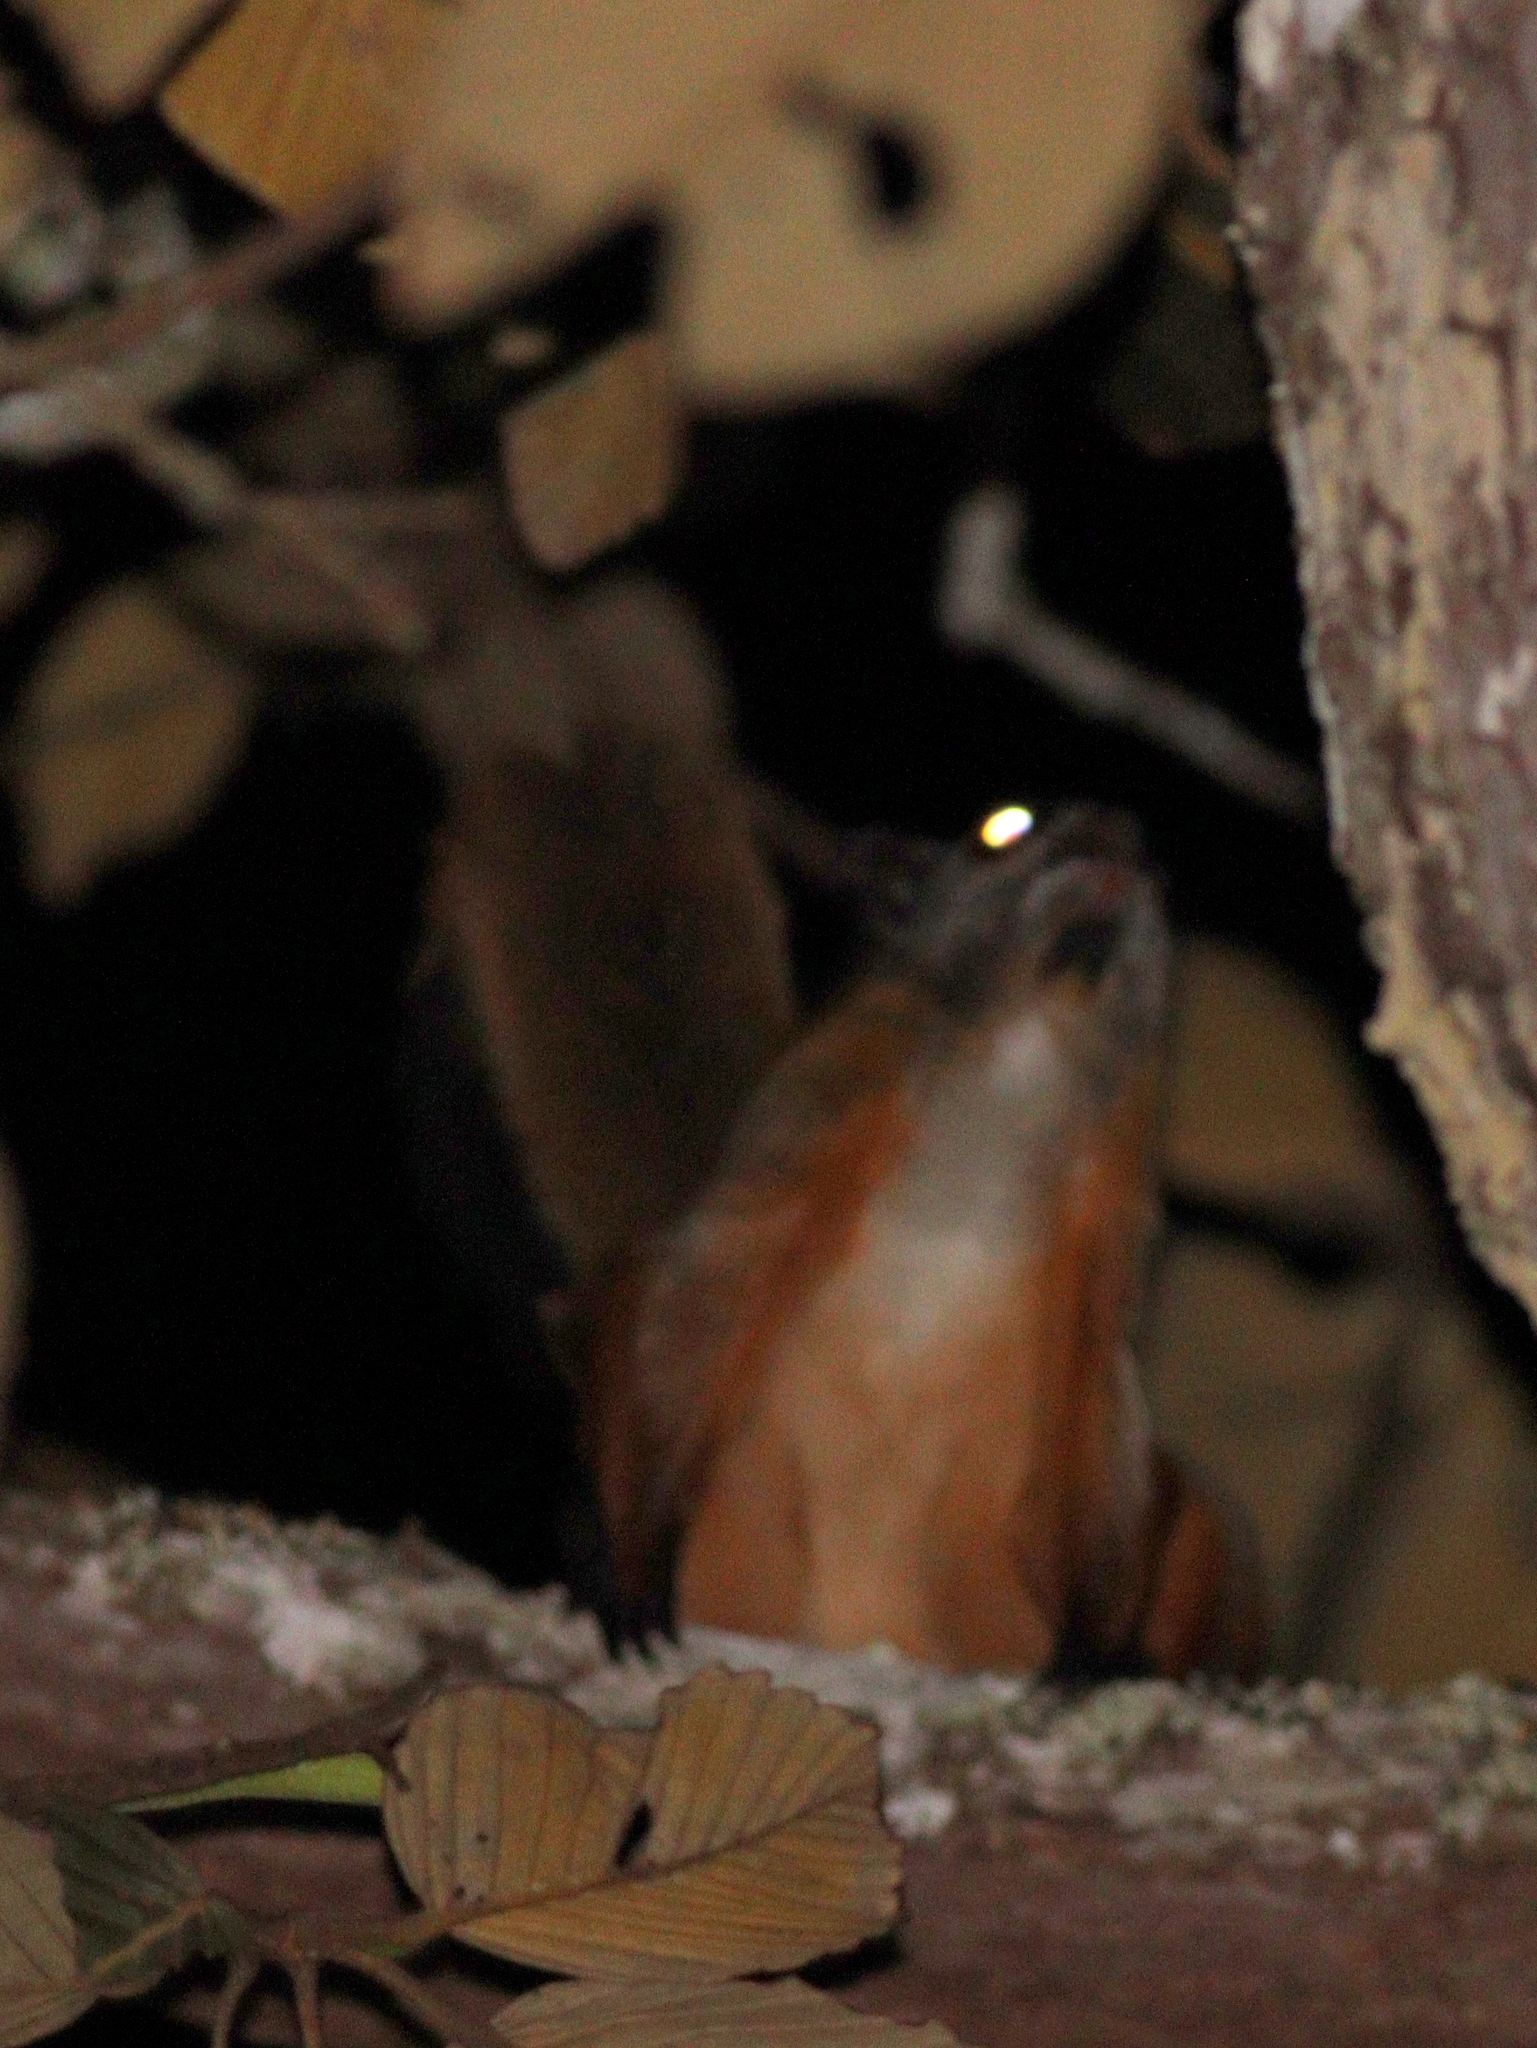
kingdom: Animalia
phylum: Chordata
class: Mammalia
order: Rodentia
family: Sciuridae
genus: Petaurista
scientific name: Petaurista philippensis
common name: Indian giant flying squirrel
